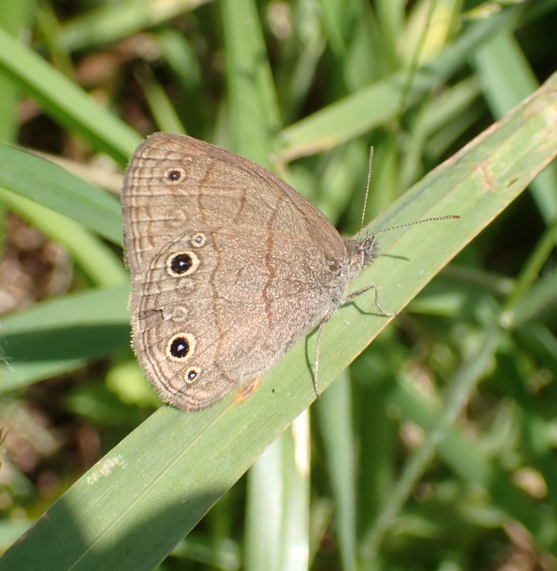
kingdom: Animalia
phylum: Arthropoda
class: Insecta
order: Lepidoptera
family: Nymphalidae
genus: Hermeuptychia
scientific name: Hermeuptychia hermes
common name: Hermes satyr
